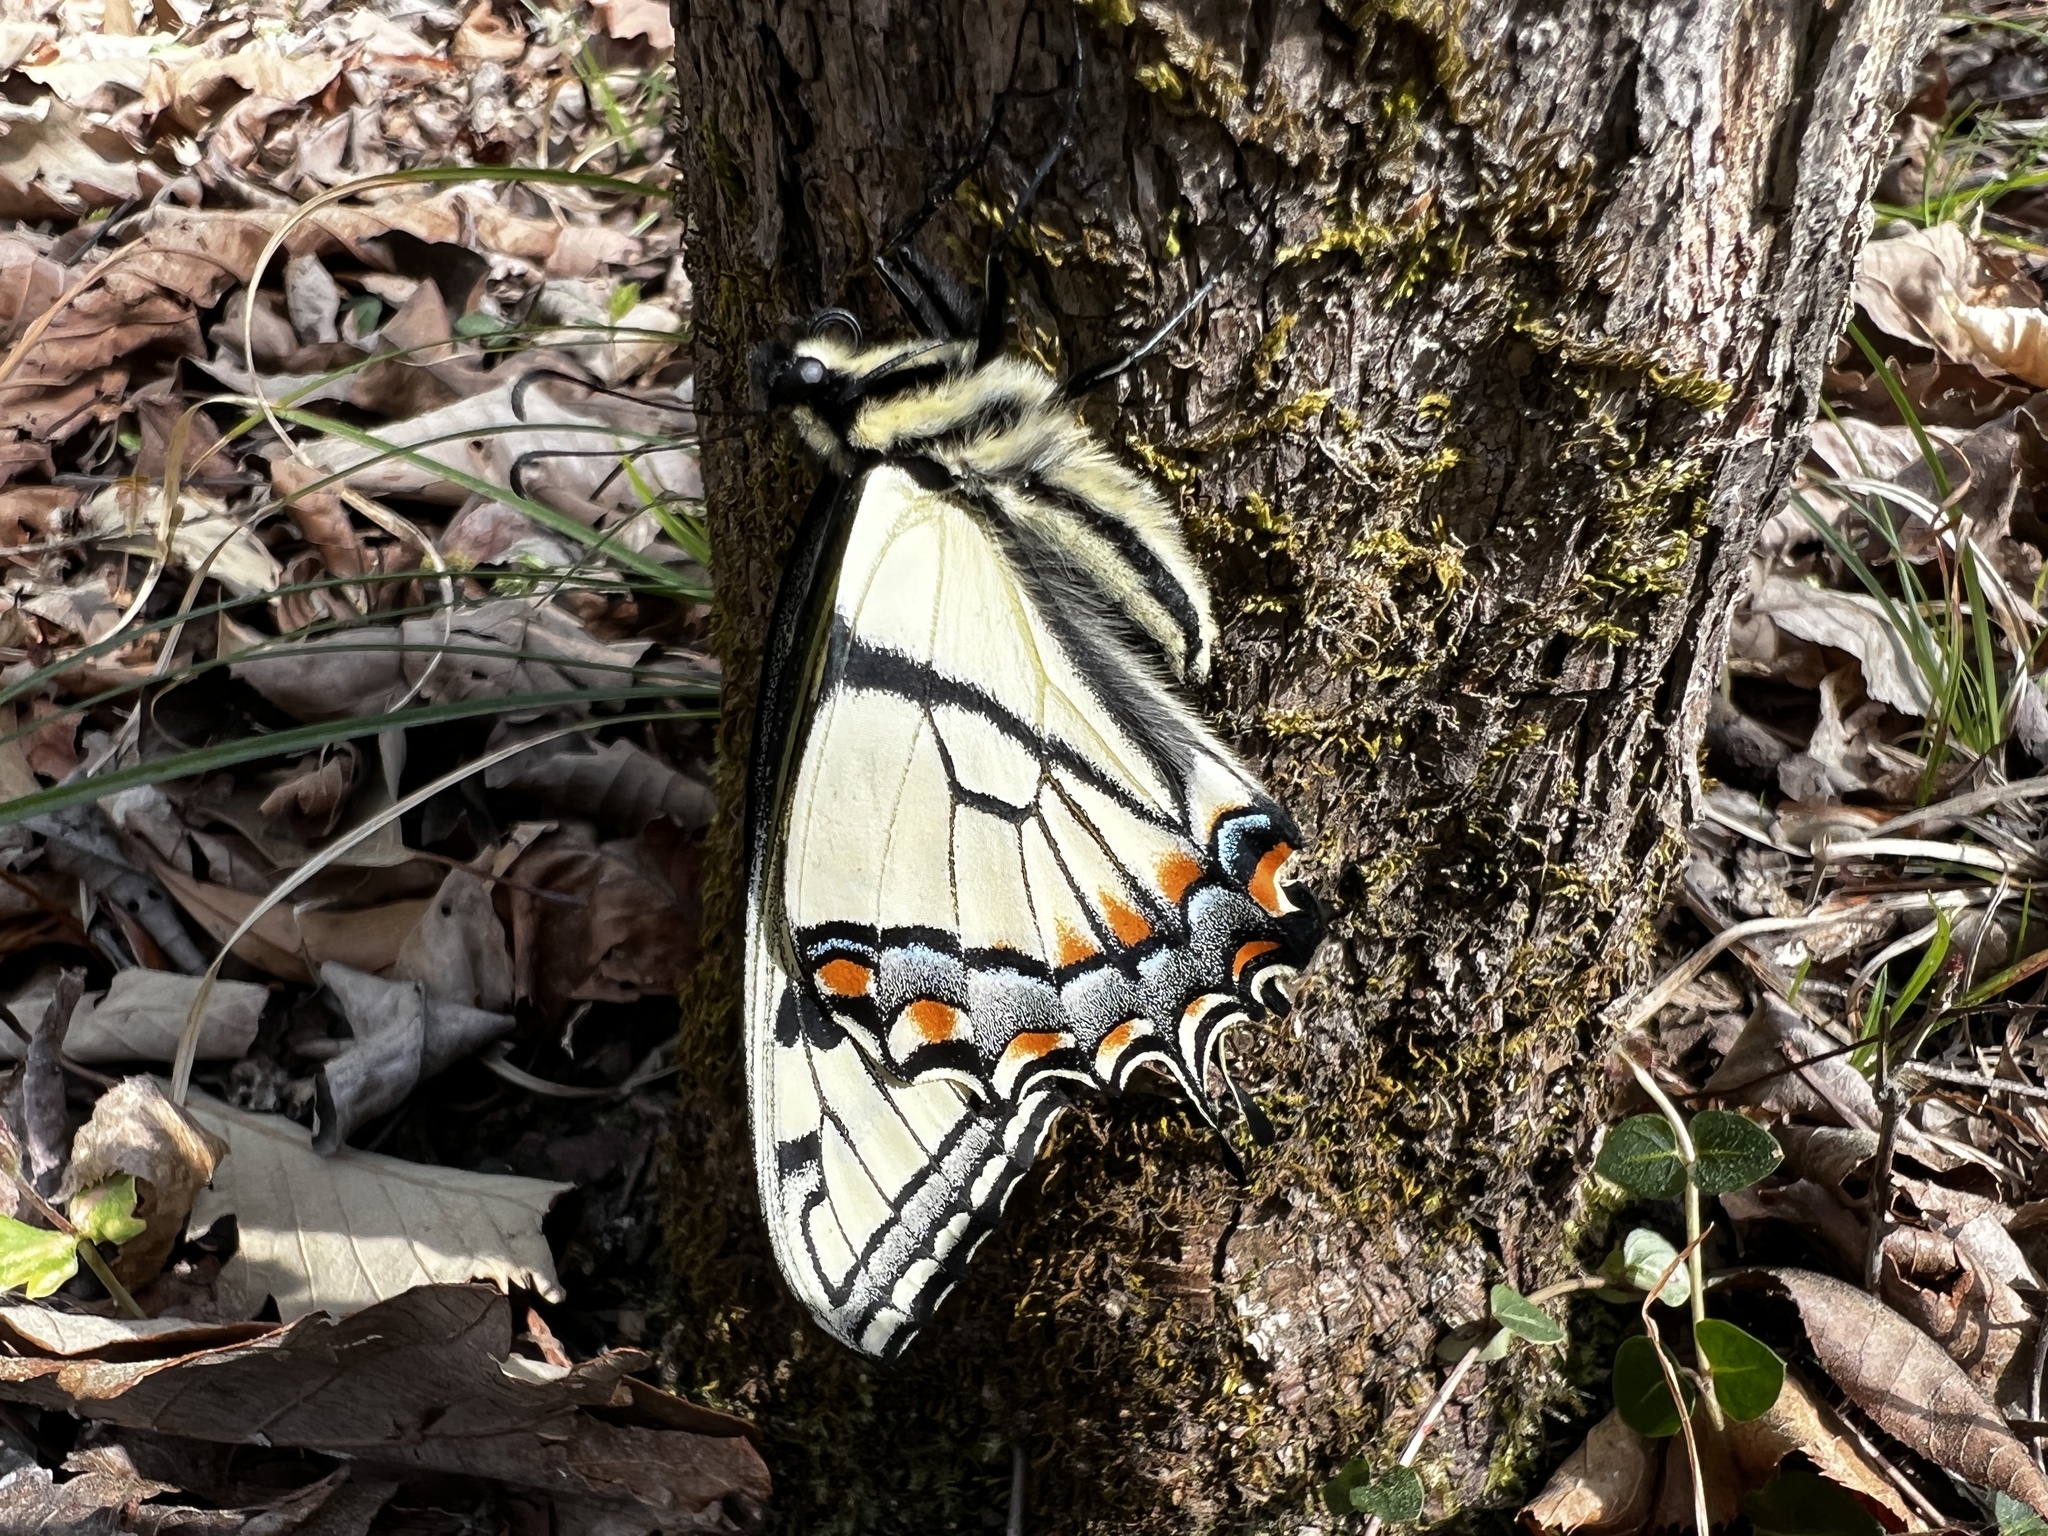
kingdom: Animalia
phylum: Arthropoda
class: Insecta
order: Lepidoptera
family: Papilionidae
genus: Papilio
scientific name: Papilio glaucus
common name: Tiger swallowtail
